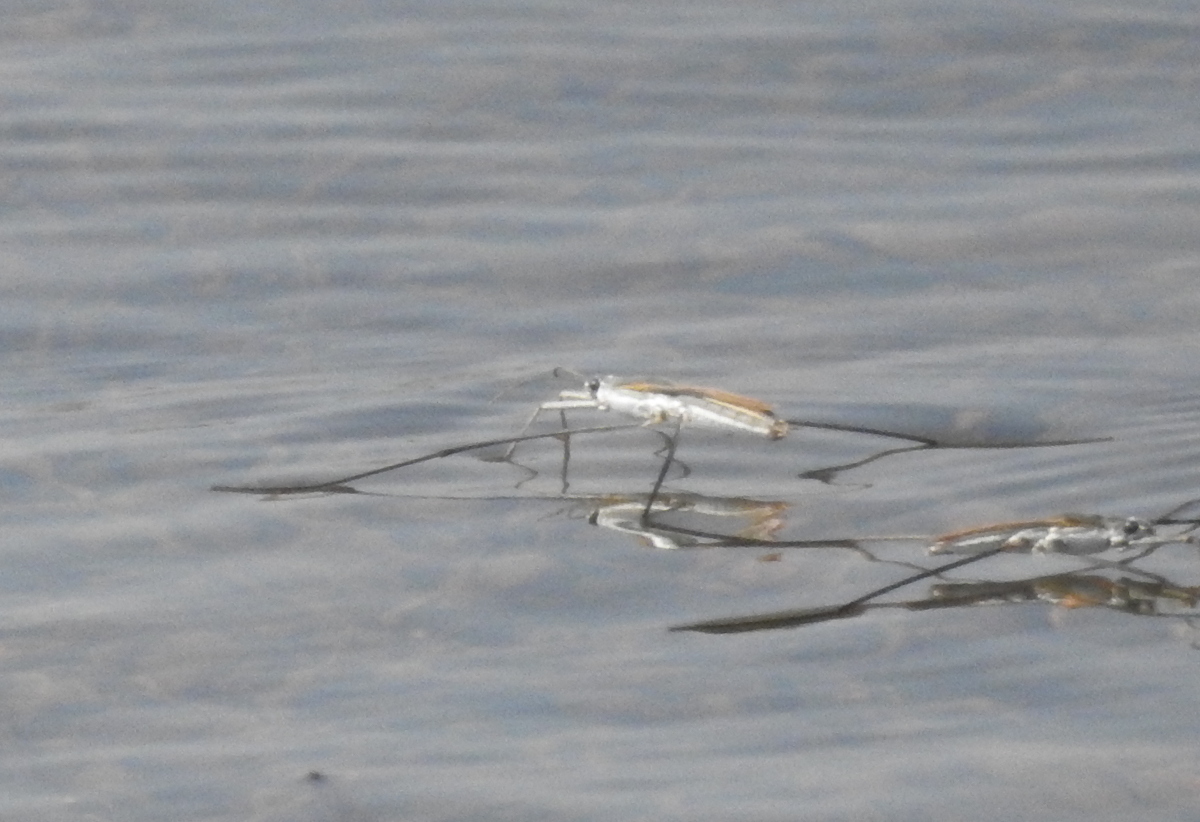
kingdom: Animalia
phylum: Arthropoda
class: Insecta
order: Hemiptera
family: Gerridae
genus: Aquarius
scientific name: Aquarius adelaidis
